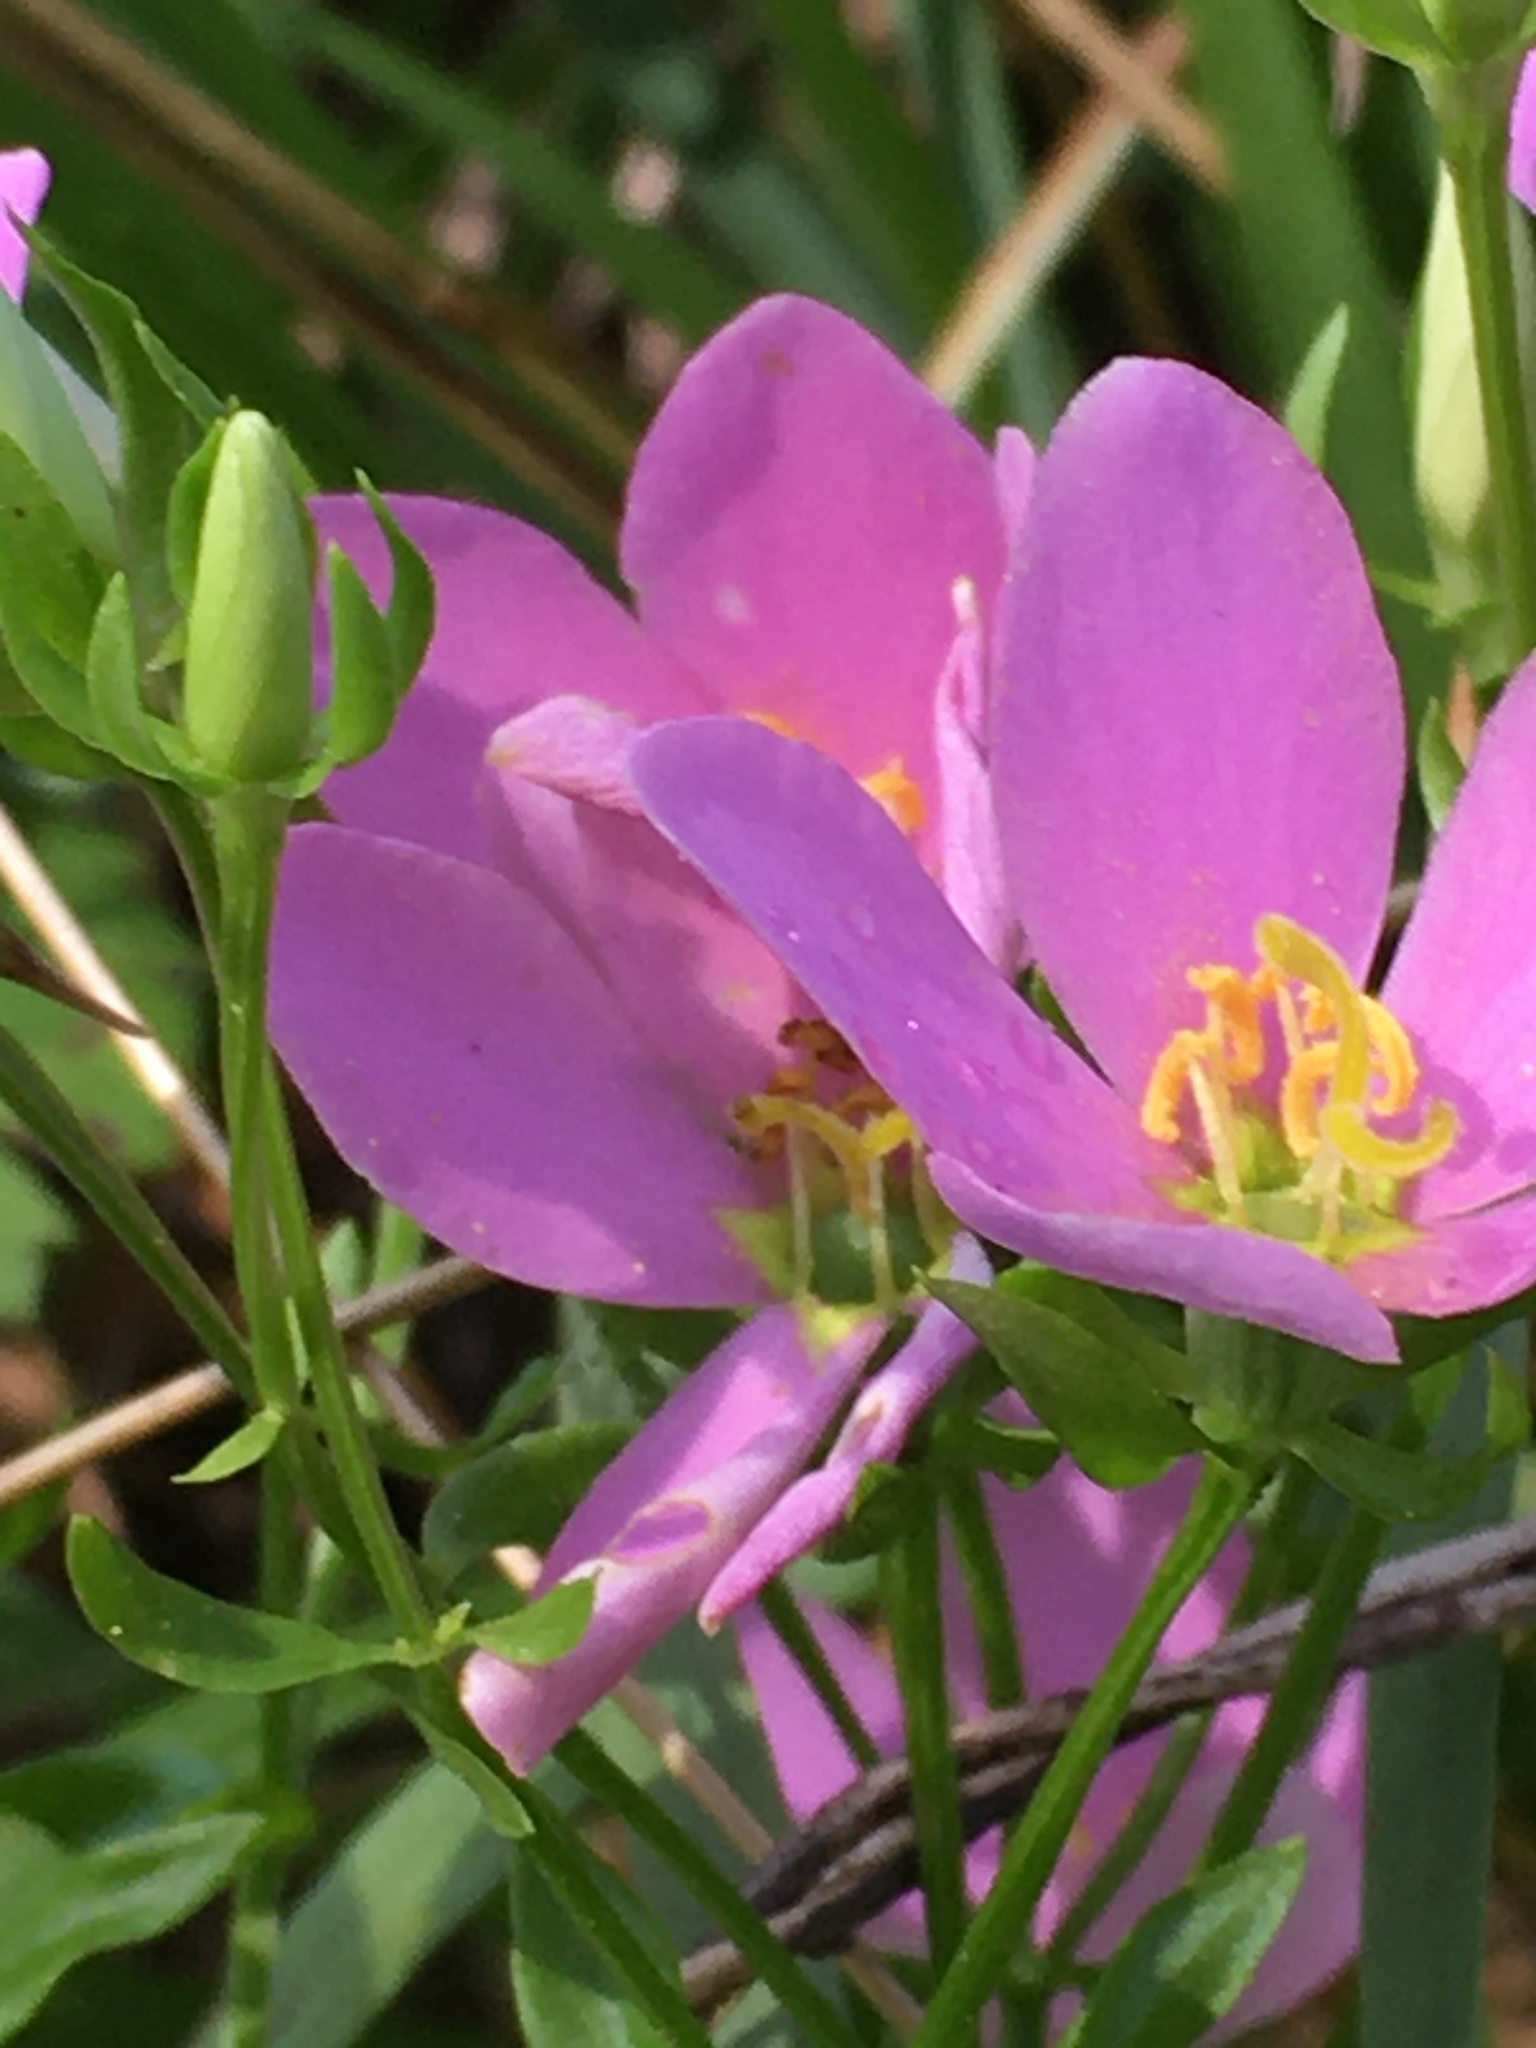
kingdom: Plantae
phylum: Tracheophyta
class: Magnoliopsida
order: Gentianales
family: Gentianaceae
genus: Sabatia
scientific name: Sabatia angularis
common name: Rose-pink
